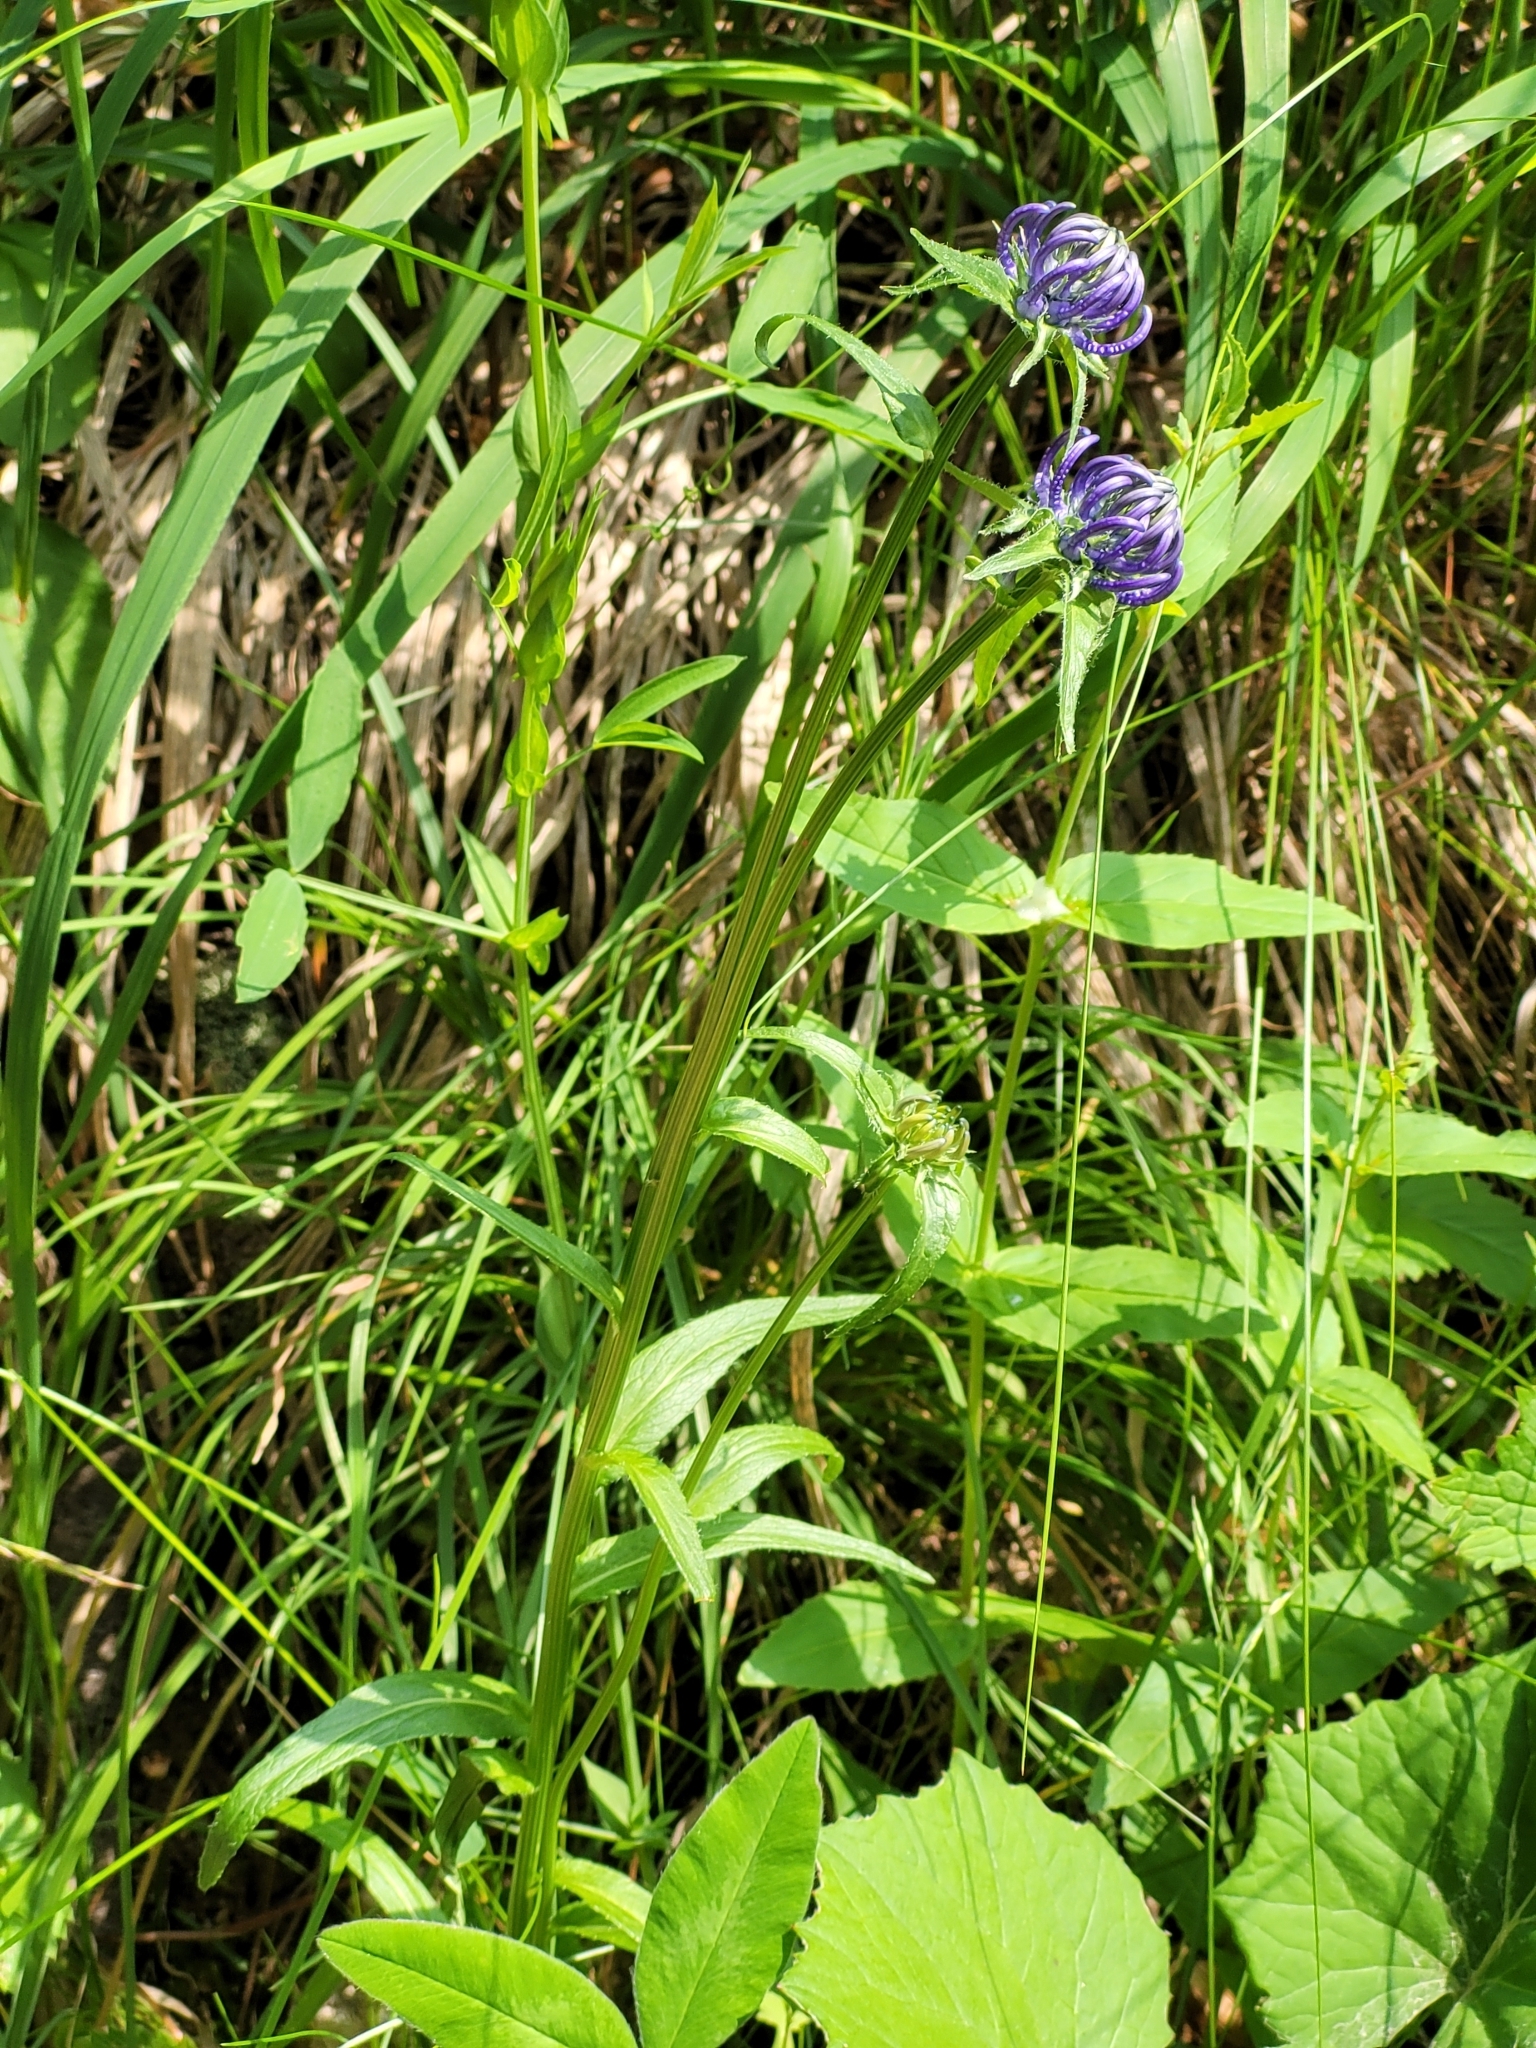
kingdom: Plantae
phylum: Tracheophyta
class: Magnoliopsida
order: Asterales
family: Campanulaceae
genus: Phyteuma
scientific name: Phyteuma orbiculare
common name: Round-headed rampion
